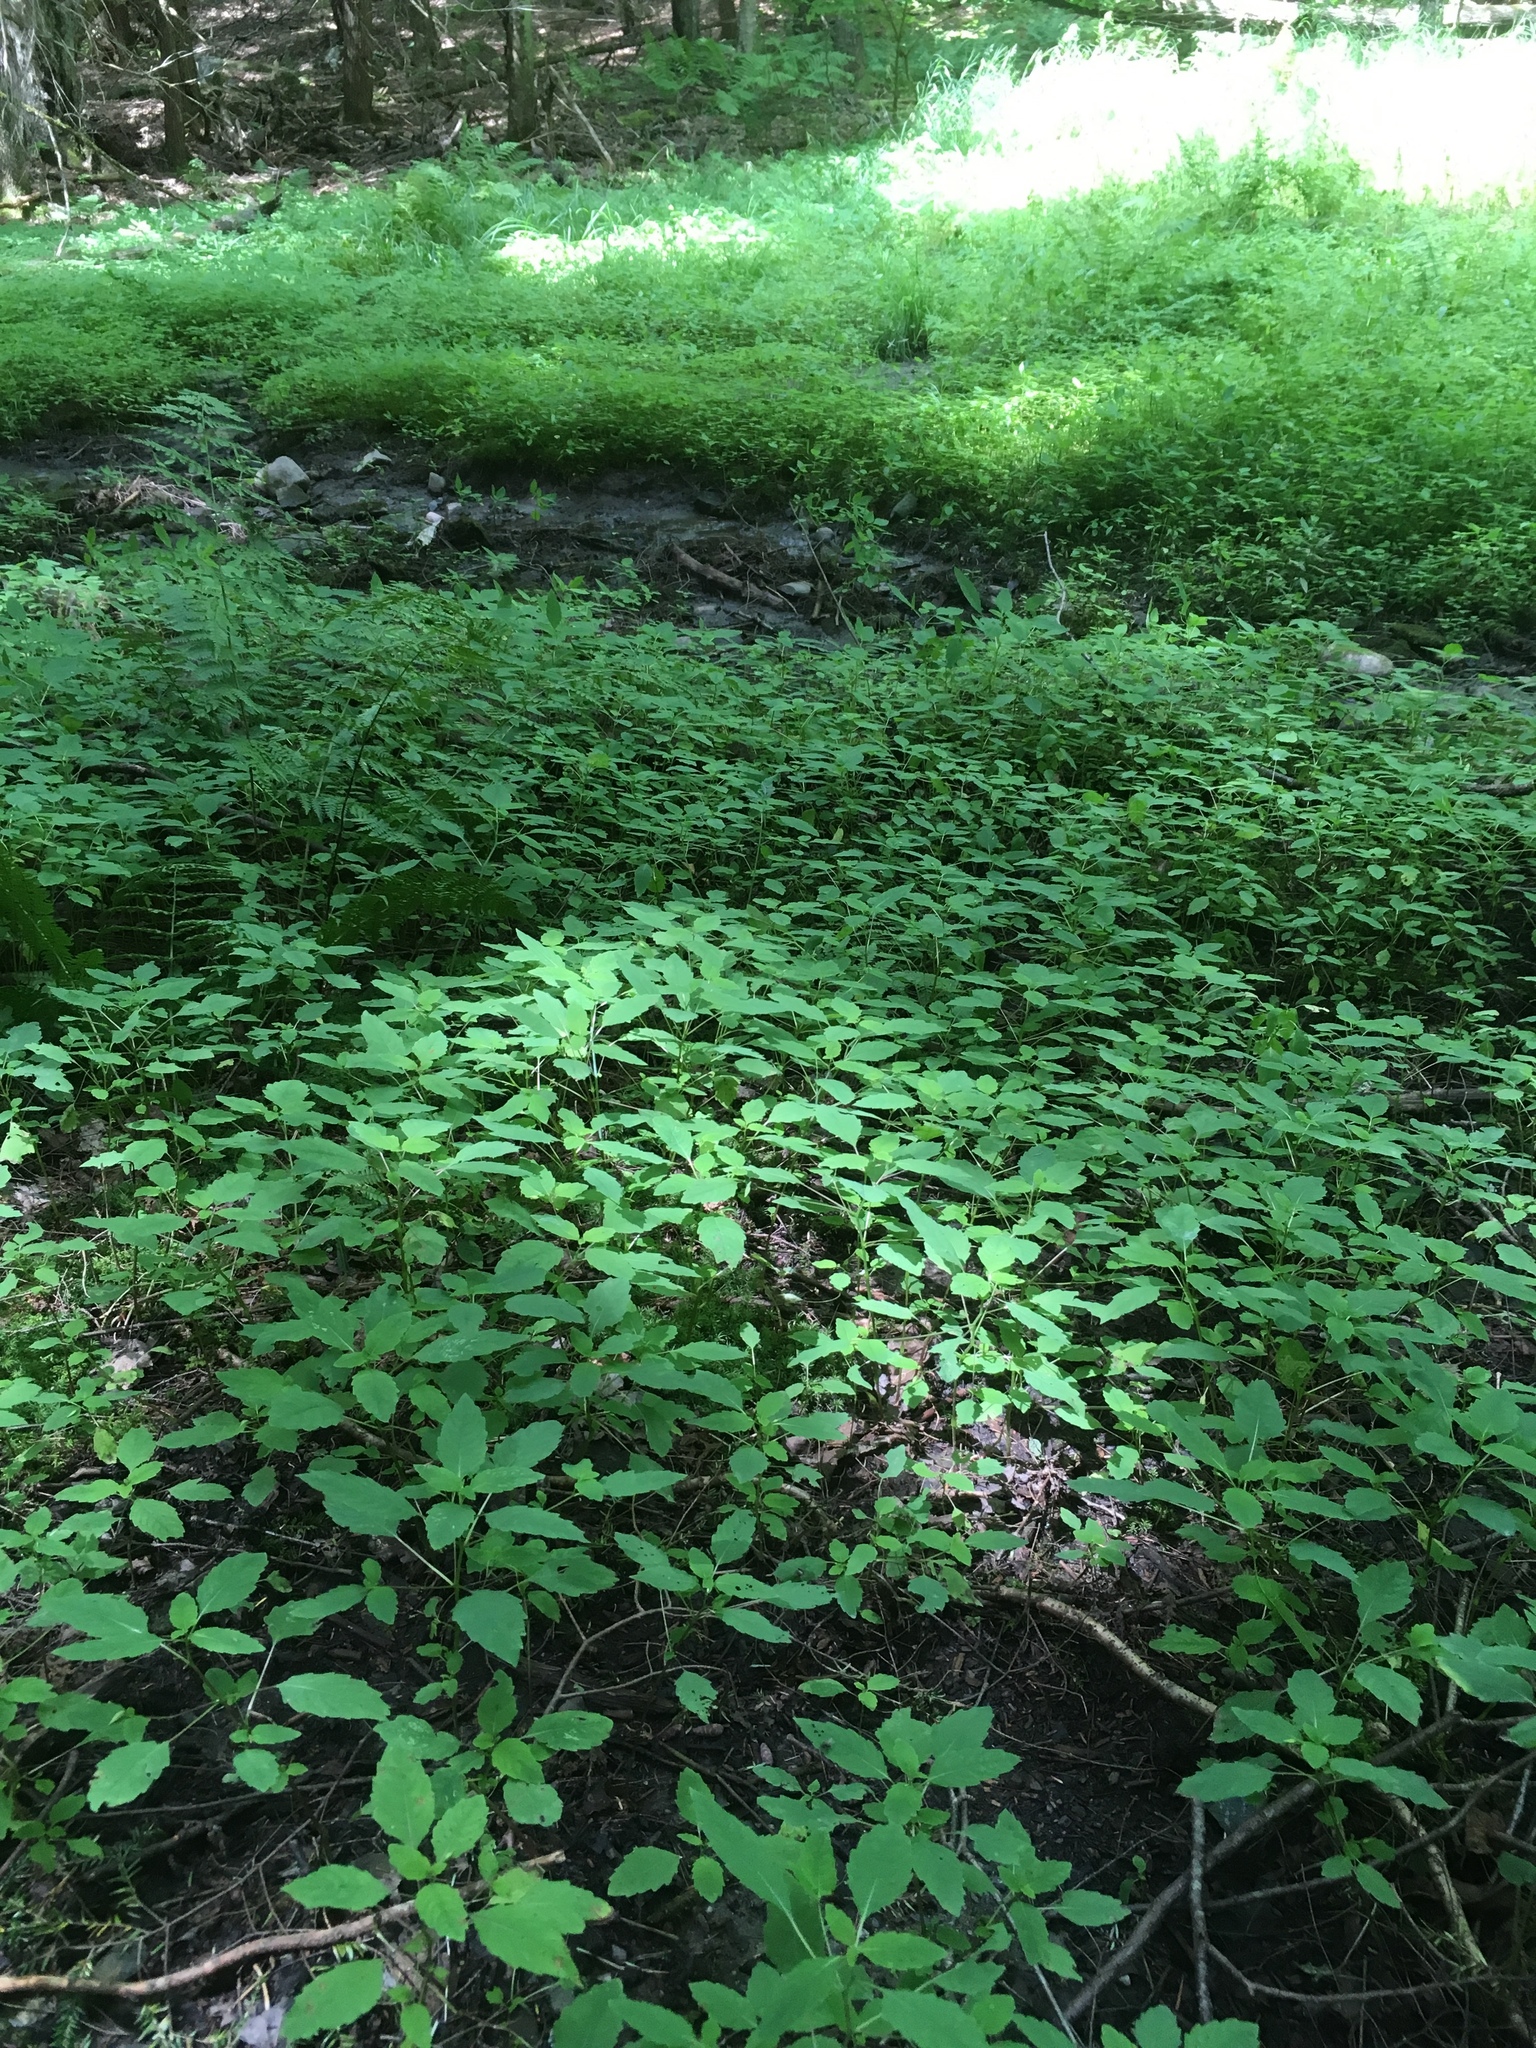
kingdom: Plantae
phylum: Tracheophyta
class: Magnoliopsida
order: Ericales
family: Balsaminaceae
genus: Impatiens
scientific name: Impatiens capensis
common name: Orange balsam
